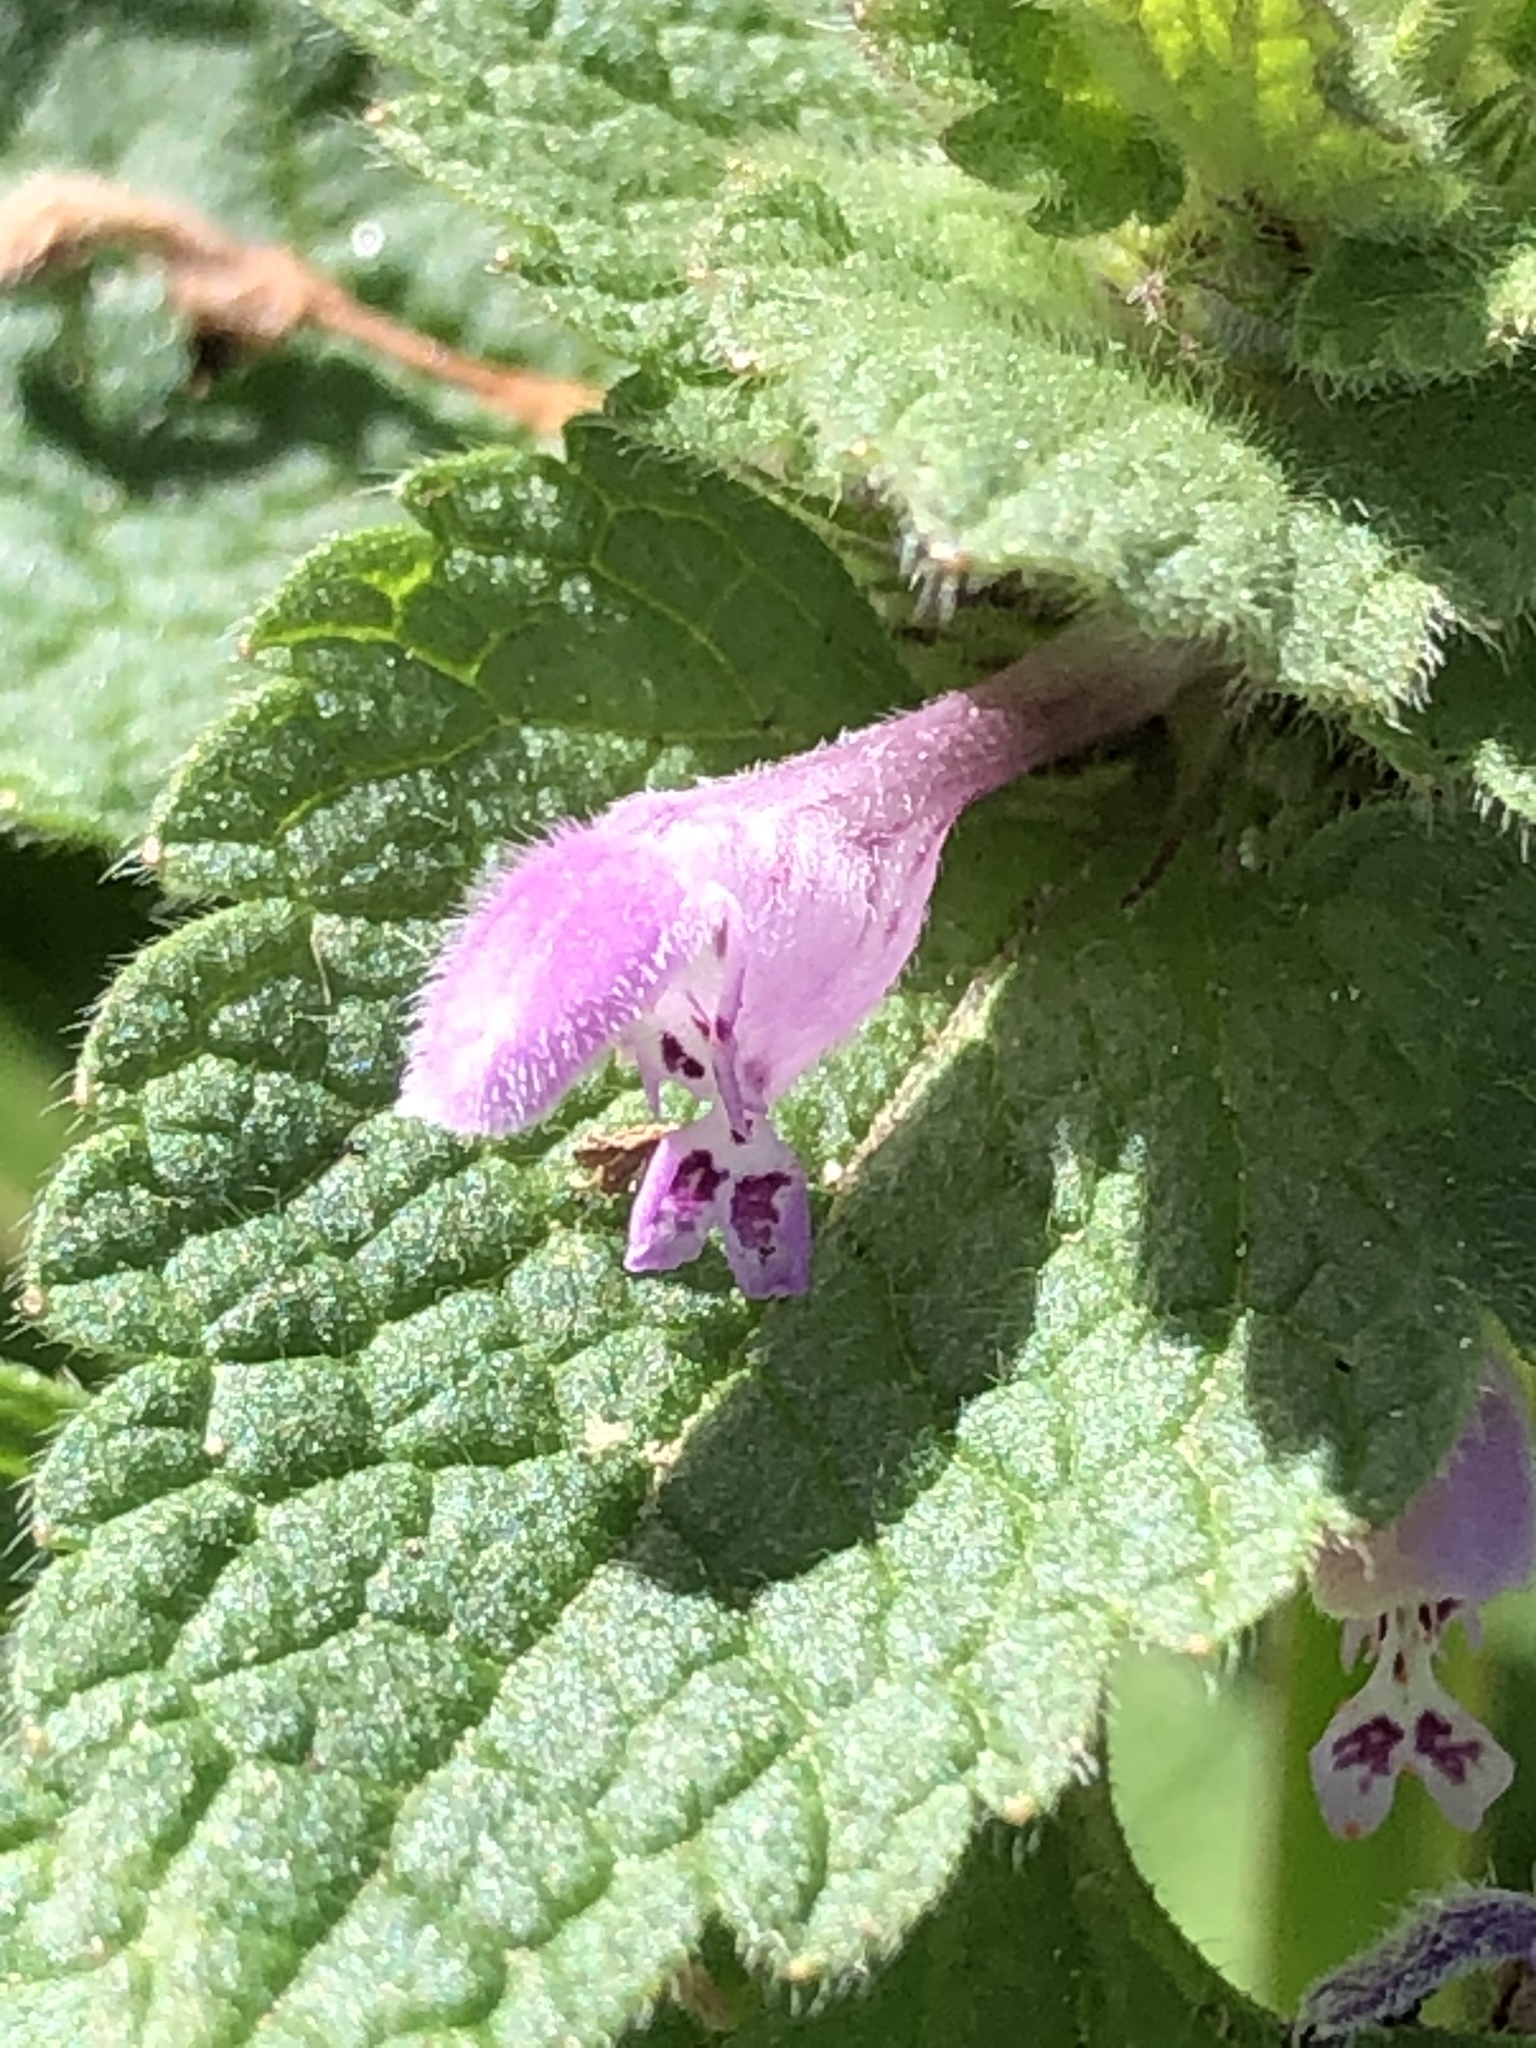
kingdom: Plantae
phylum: Tracheophyta
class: Magnoliopsida
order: Lamiales
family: Lamiaceae
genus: Lamium
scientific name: Lamium purpureum
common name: Red dead-nettle
